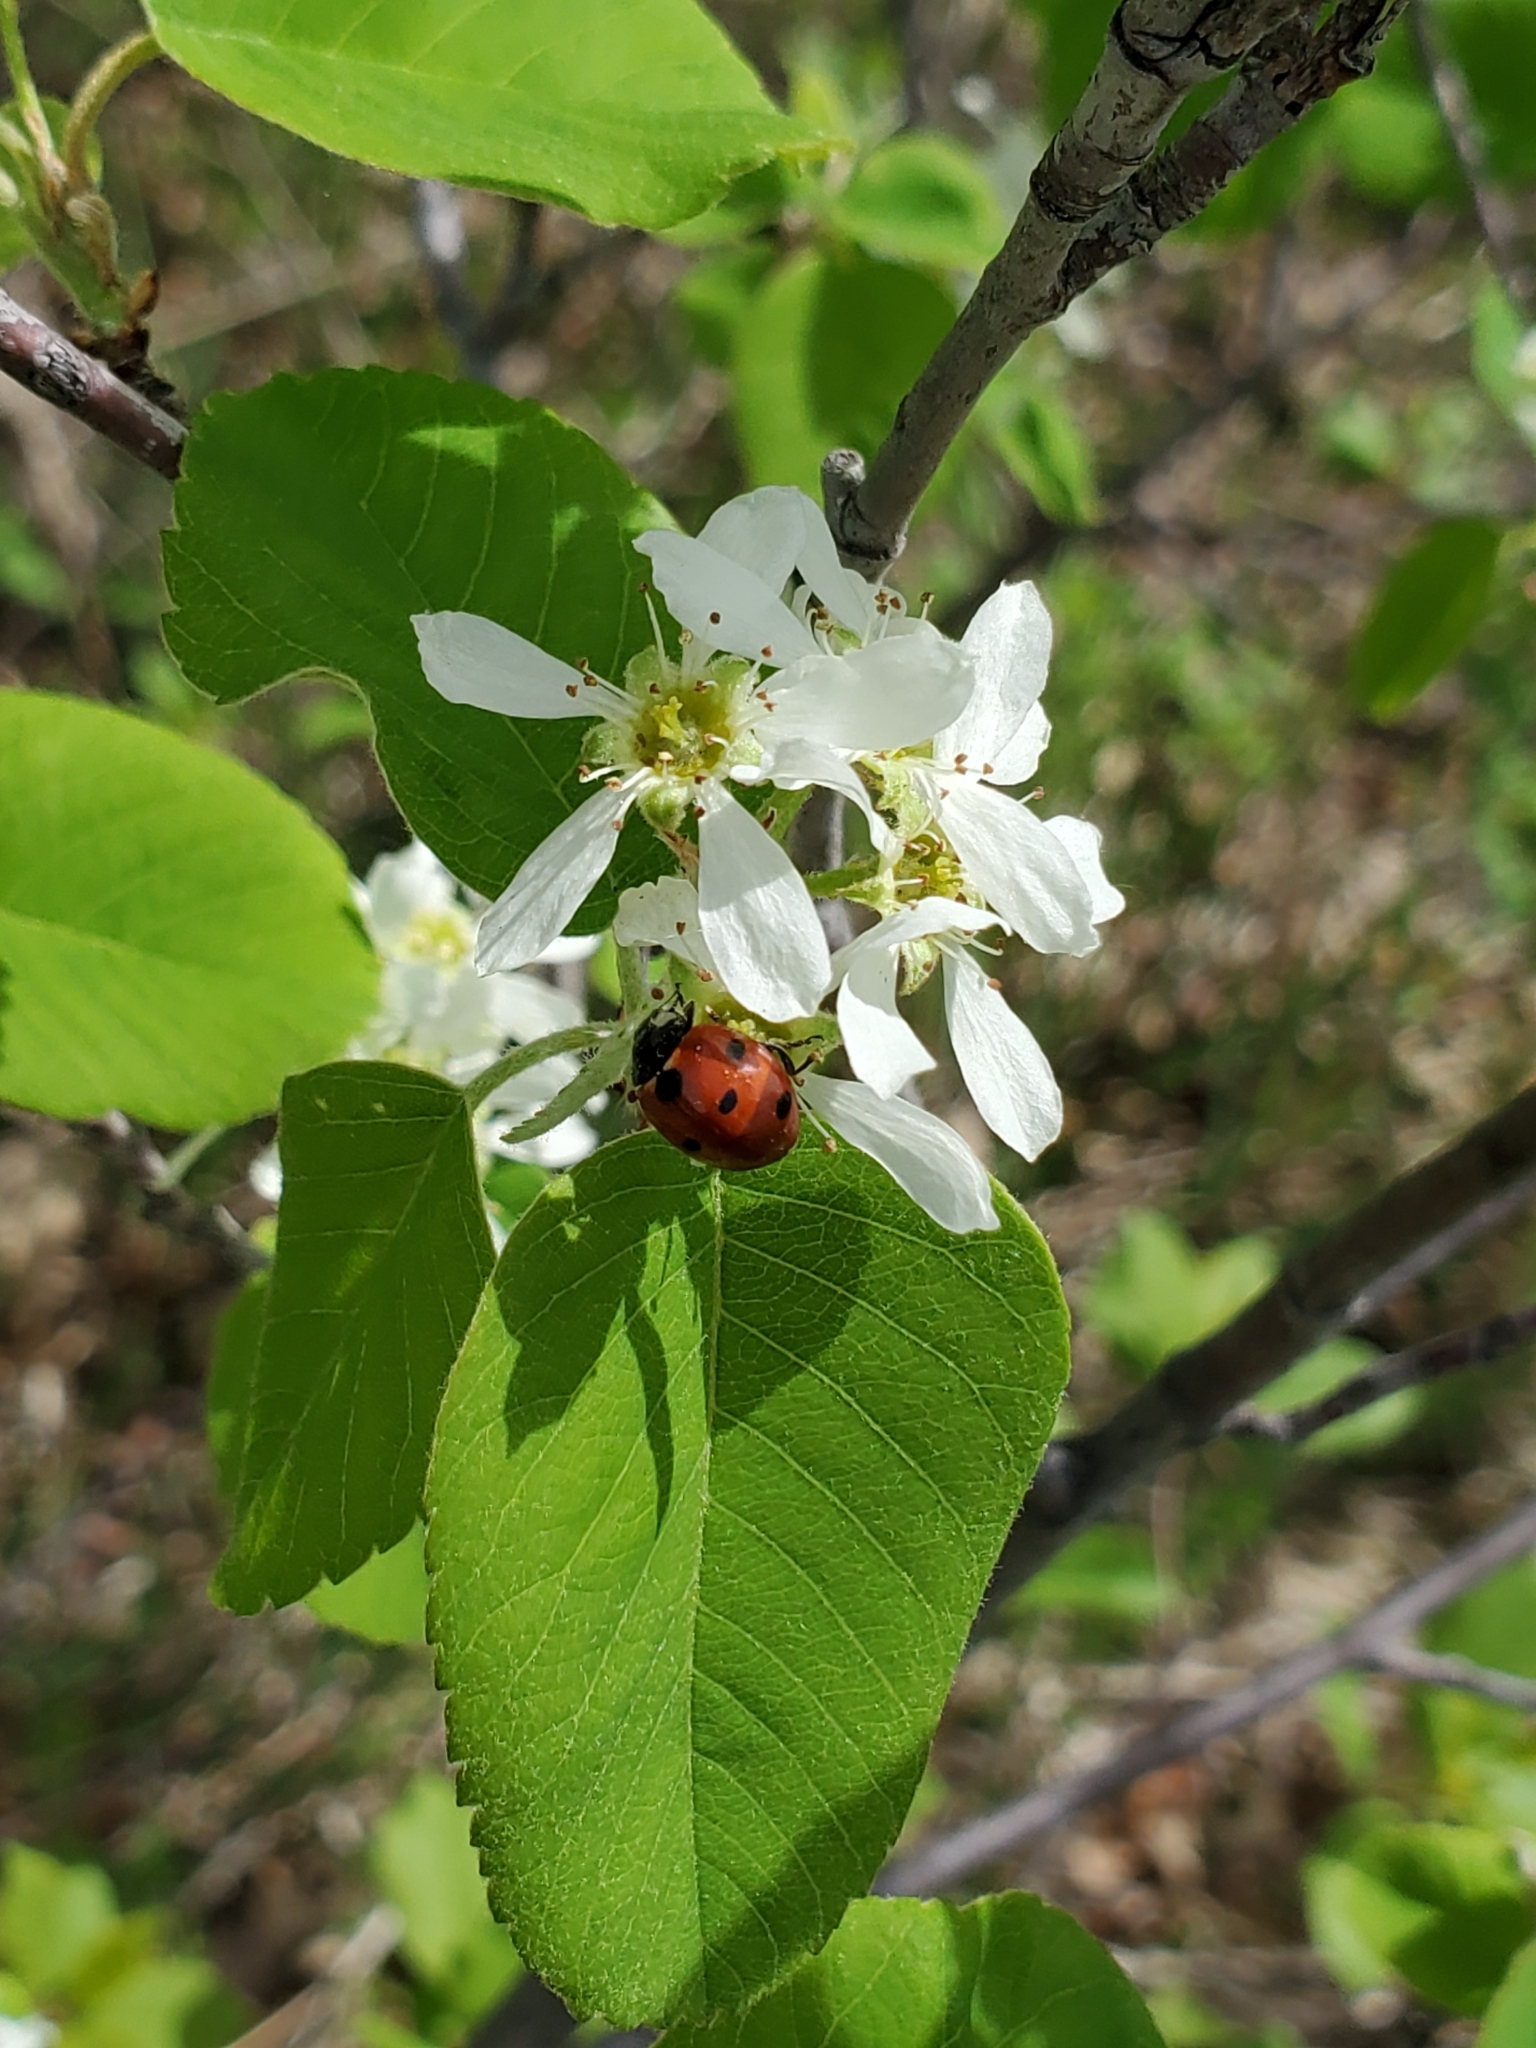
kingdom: Animalia
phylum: Arthropoda
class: Insecta
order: Coleoptera
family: Coccinellidae
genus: Coccinella
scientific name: Coccinella septempunctata
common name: Sevenspotted lady beetle
